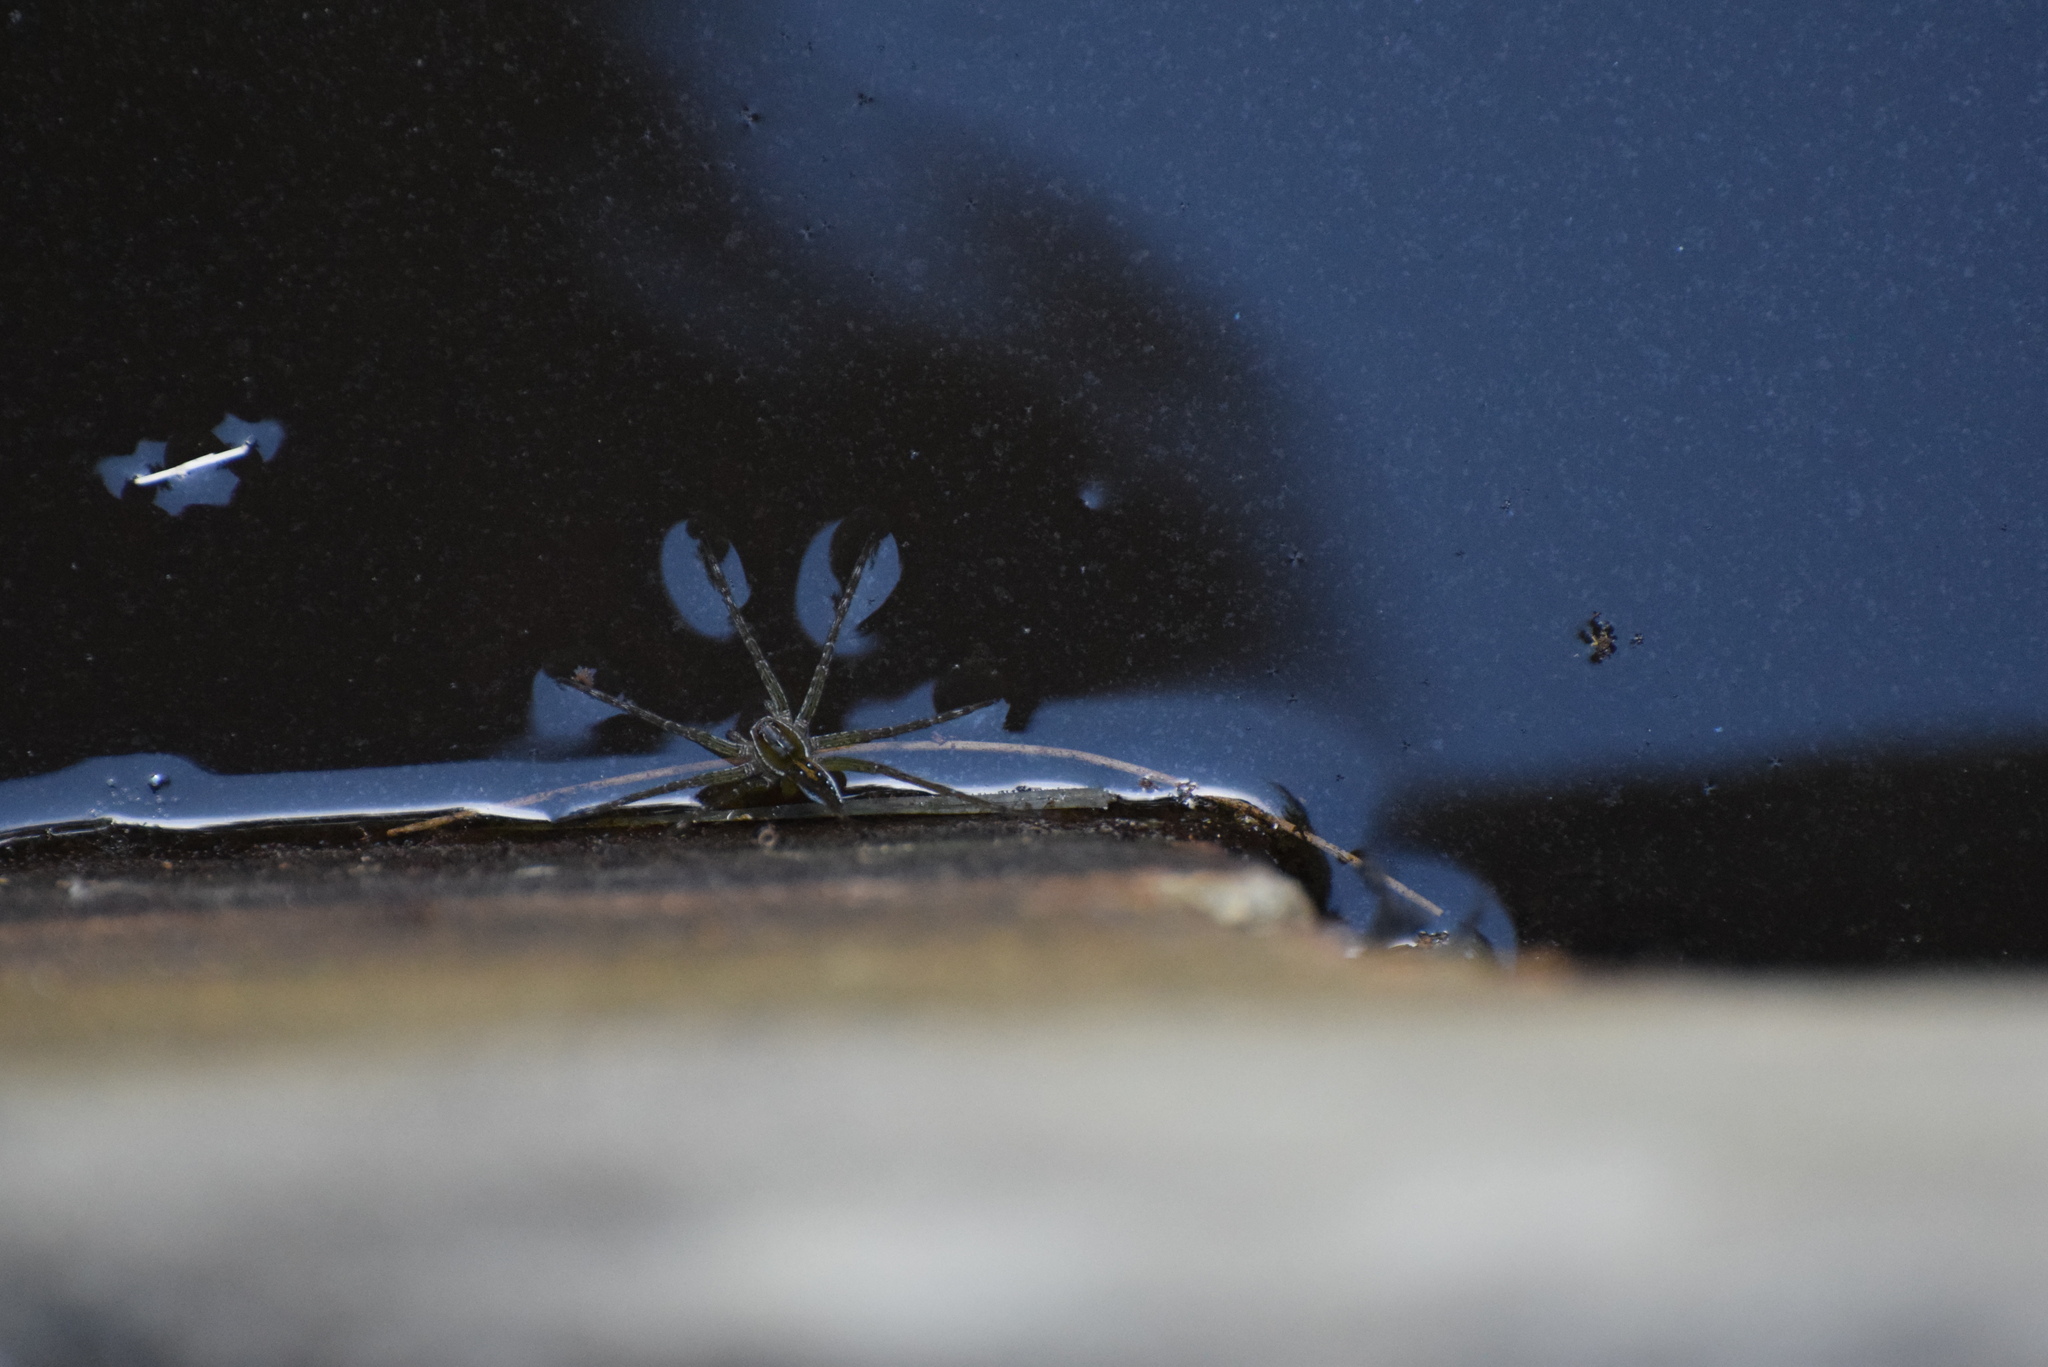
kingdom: Animalia
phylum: Arthropoda
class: Arachnida
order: Araneae
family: Pisauridae
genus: Dolomedes
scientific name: Dolomedes triton
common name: Six-spotted fishing spider
